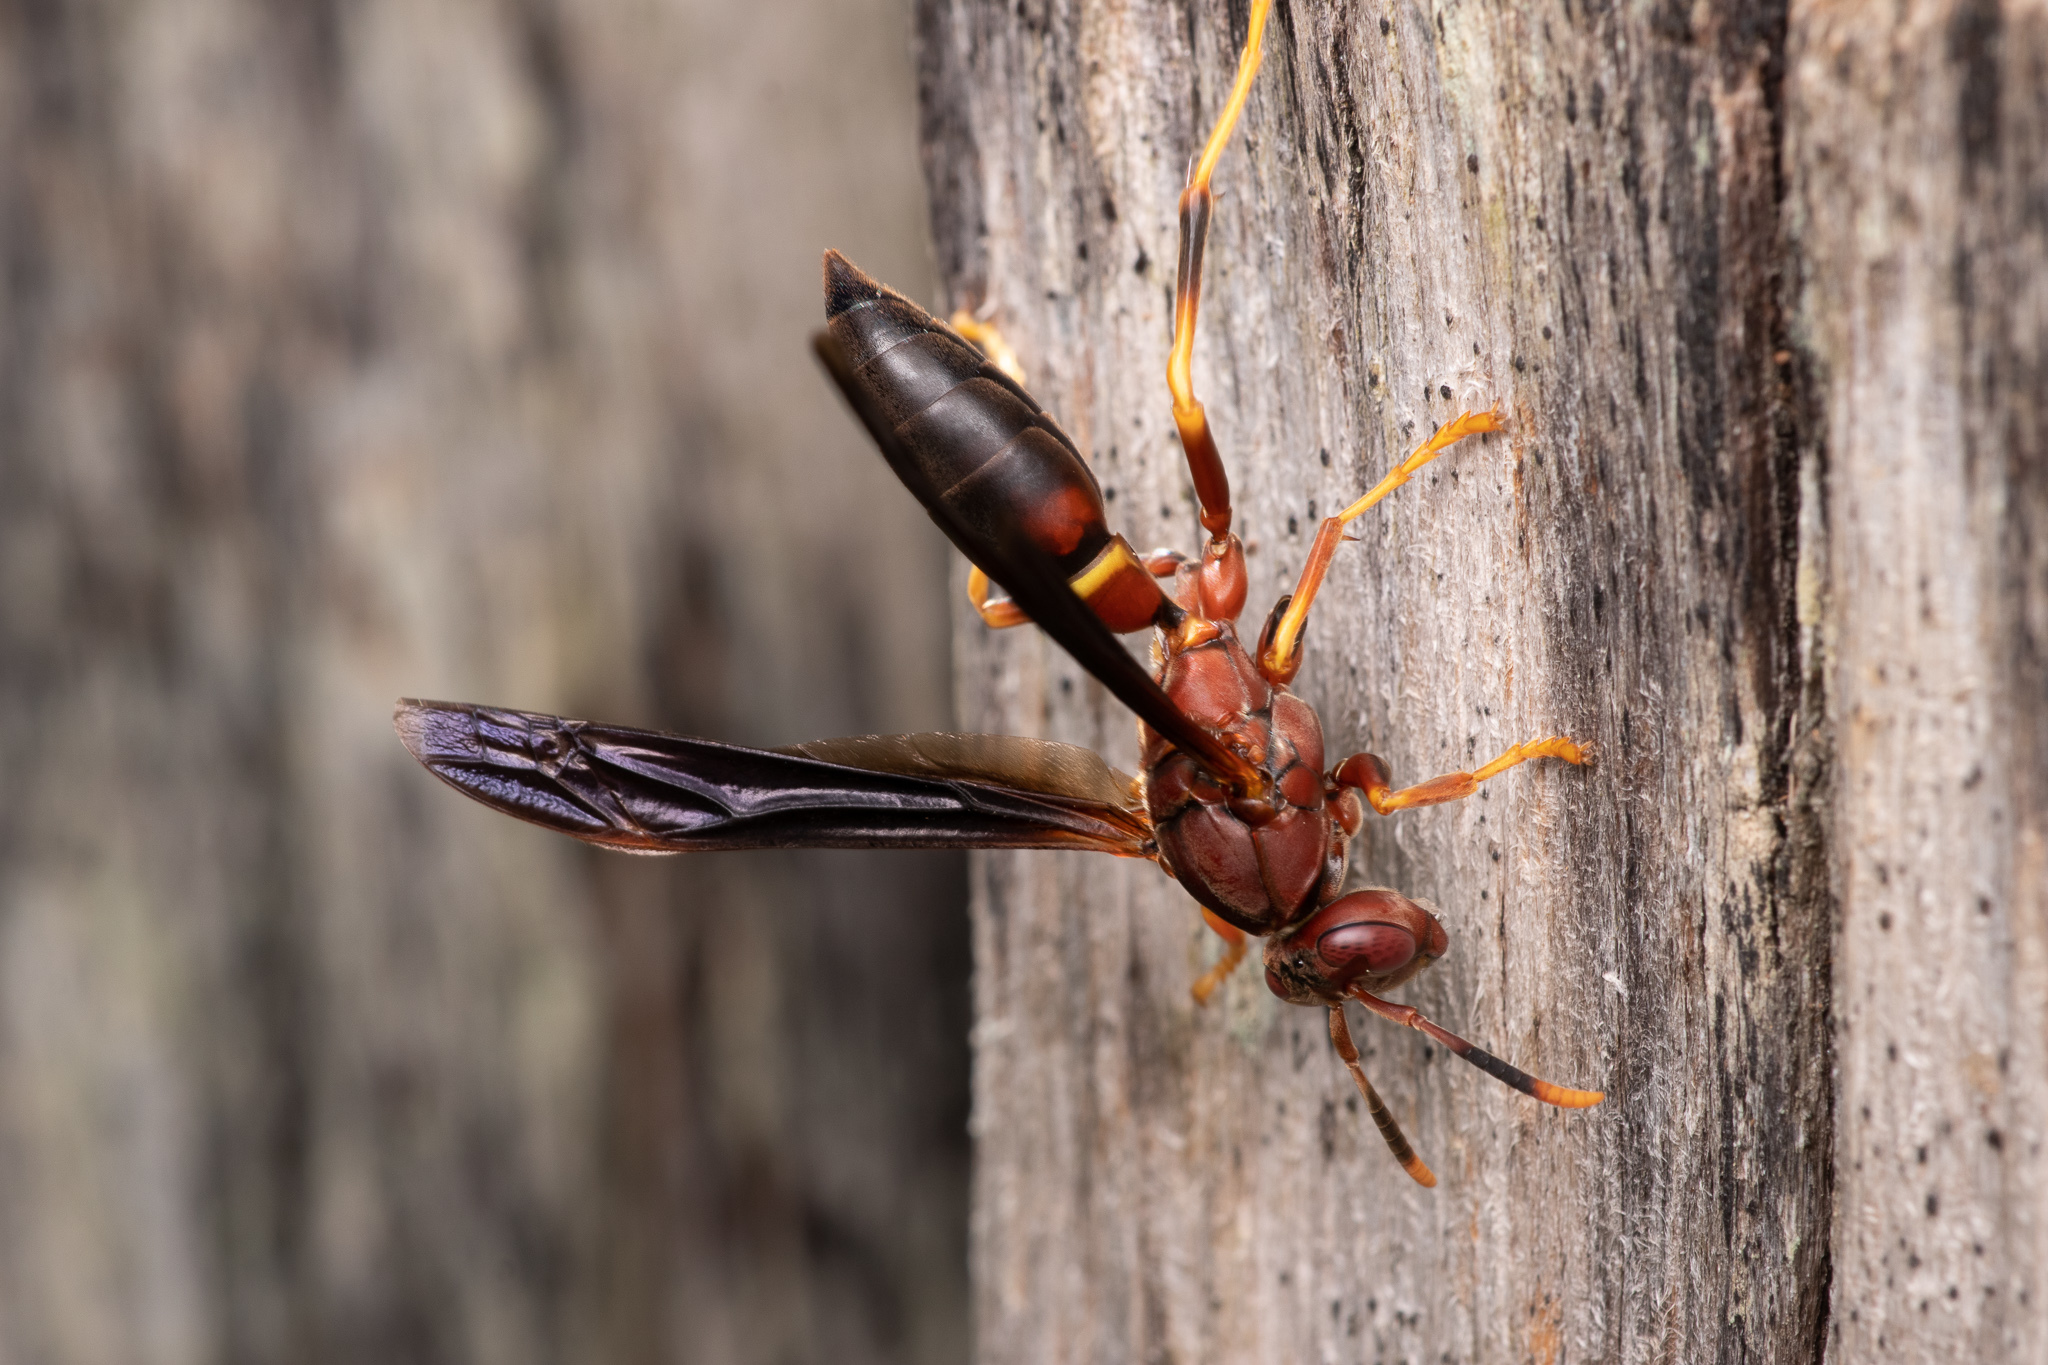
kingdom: Animalia
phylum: Arthropoda
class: Insecta
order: Hymenoptera
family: Eumenidae
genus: Polistes
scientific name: Polistes annularis
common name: Ringed paper wasp
